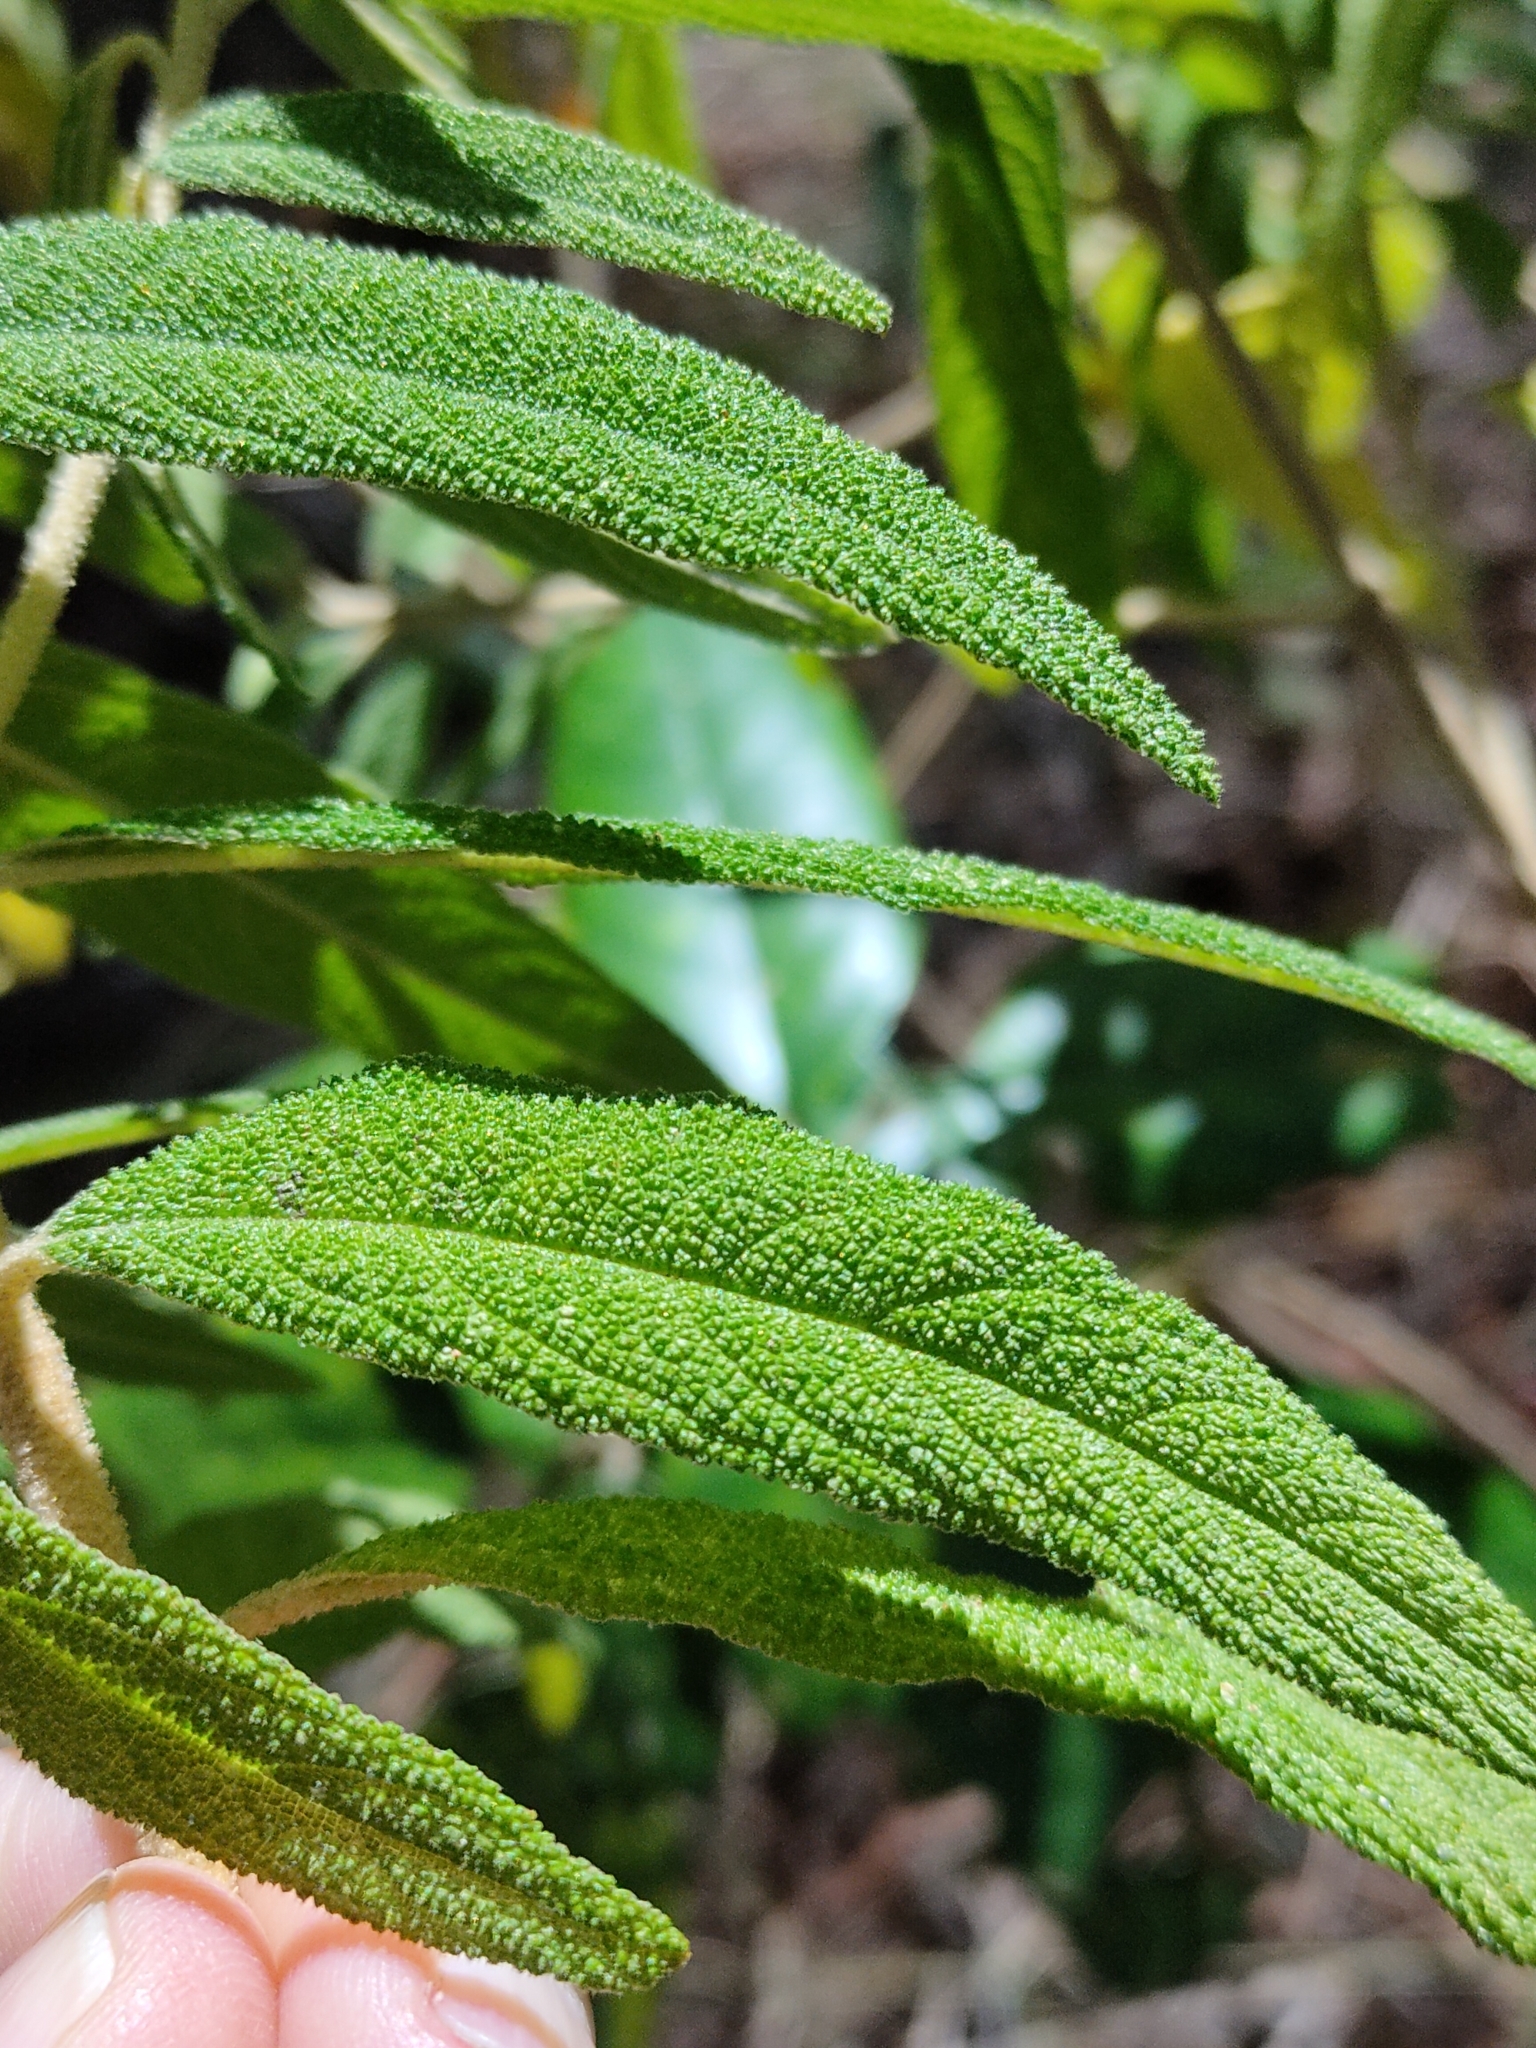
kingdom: Plantae
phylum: Tracheophyta
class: Magnoliopsida
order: Lamiales
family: Lamiaceae
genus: Pityrodia
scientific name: Pityrodia salviifolia
